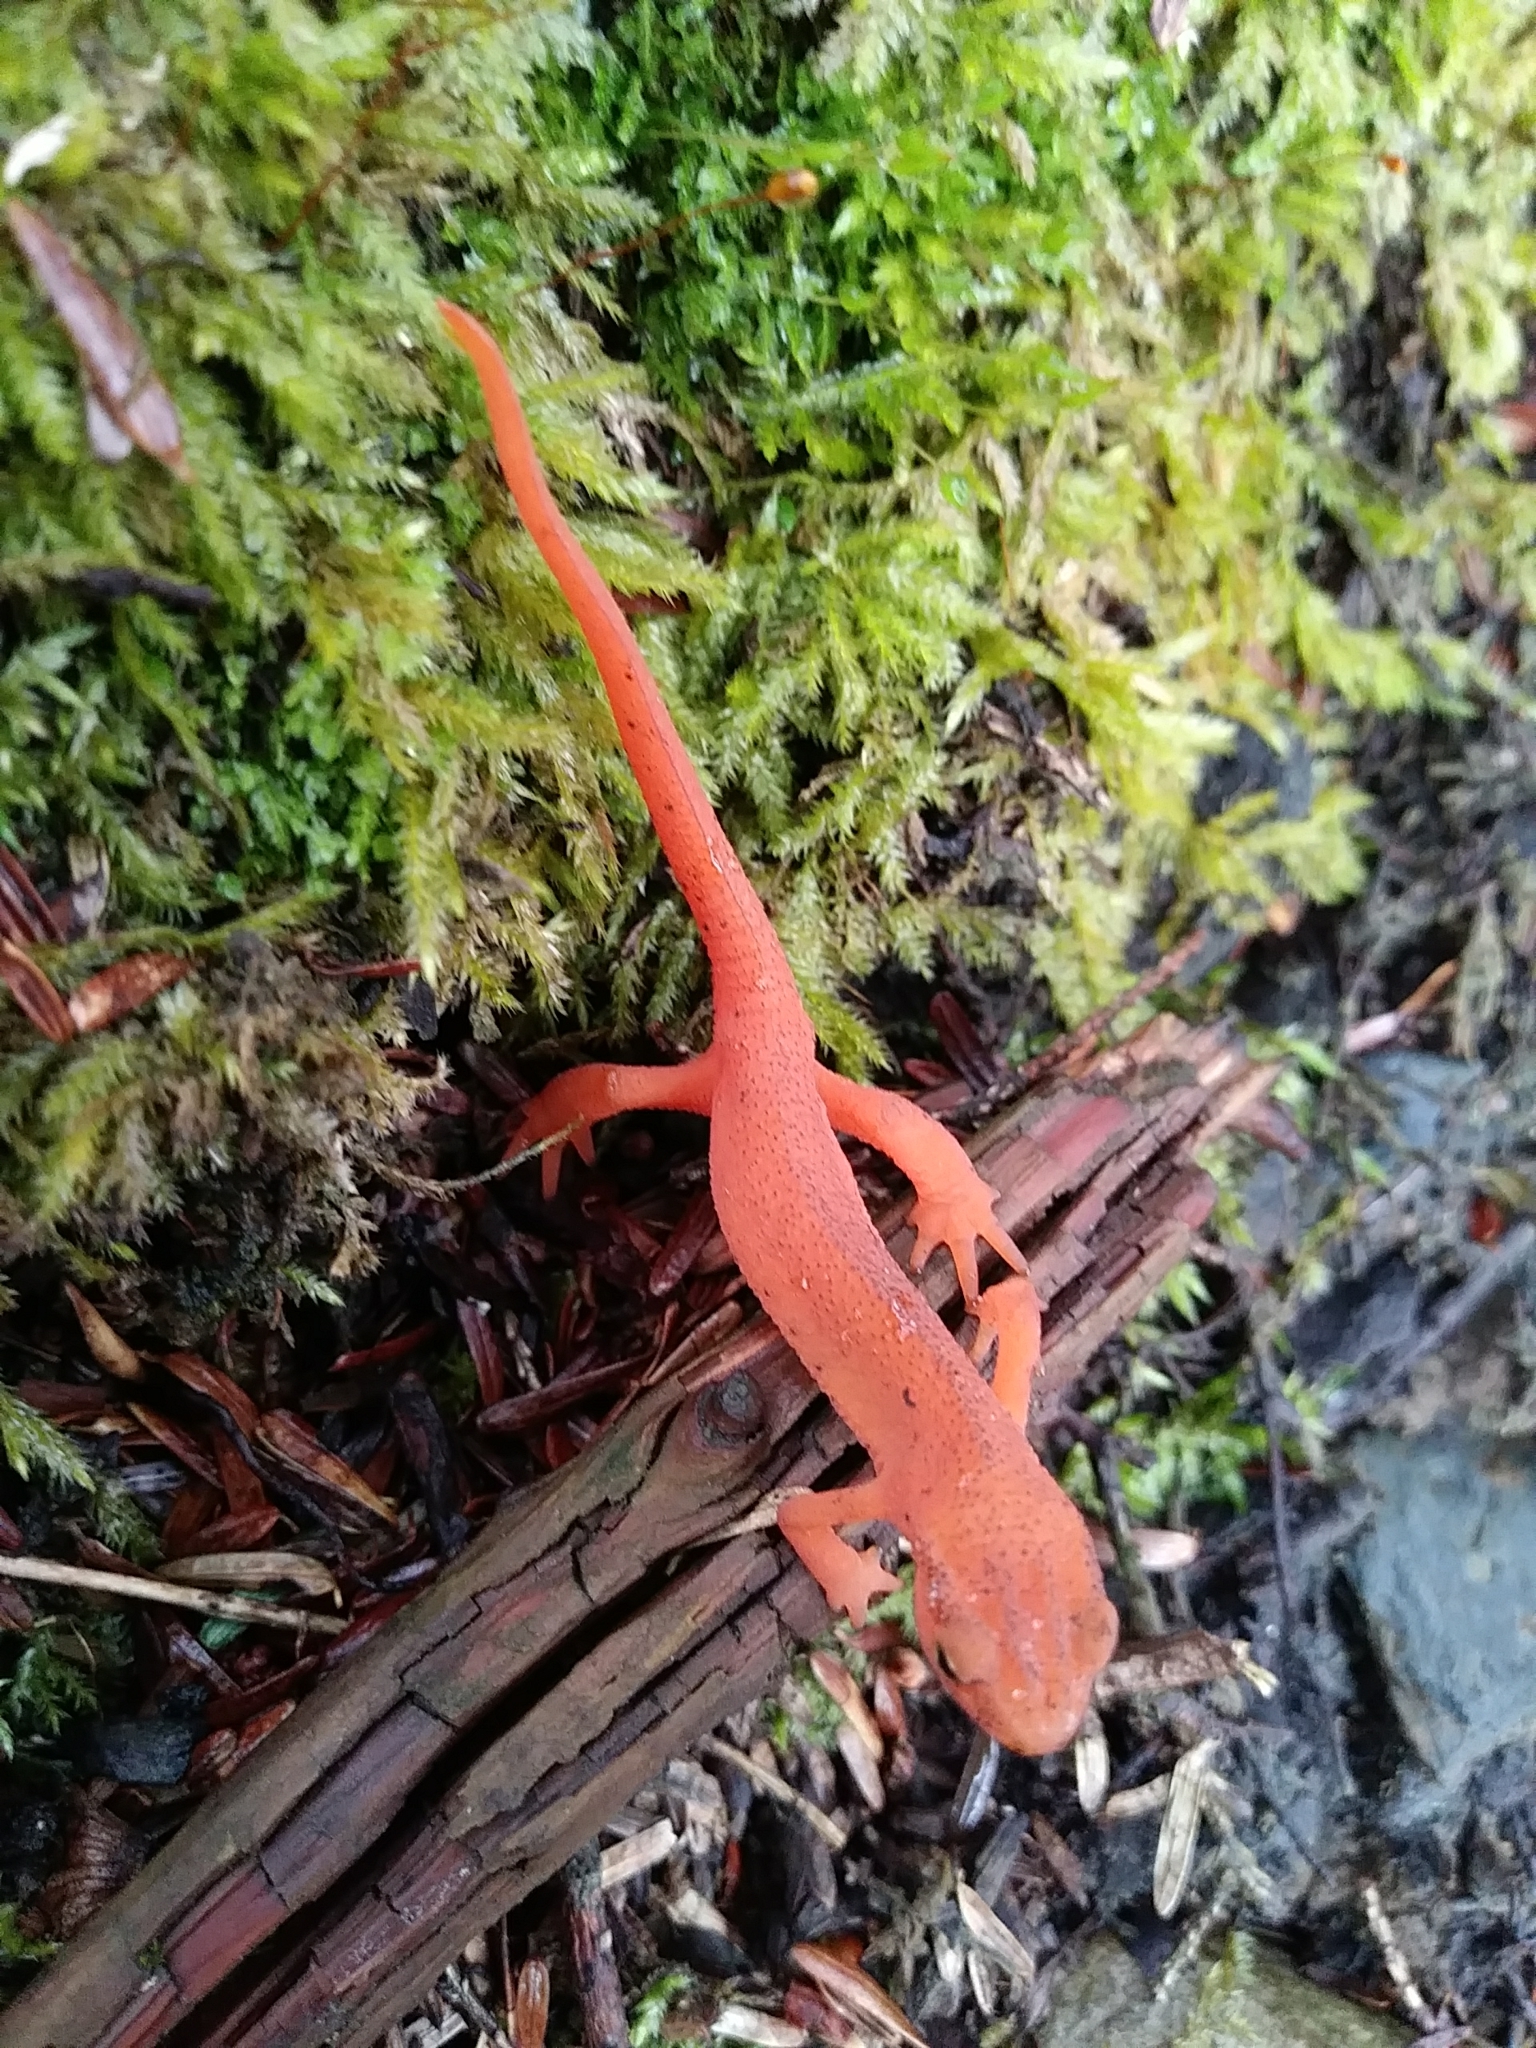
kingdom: Animalia
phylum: Chordata
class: Amphibia
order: Caudata
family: Salamandridae
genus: Notophthalmus
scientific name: Notophthalmus viridescens
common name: Eastern newt
